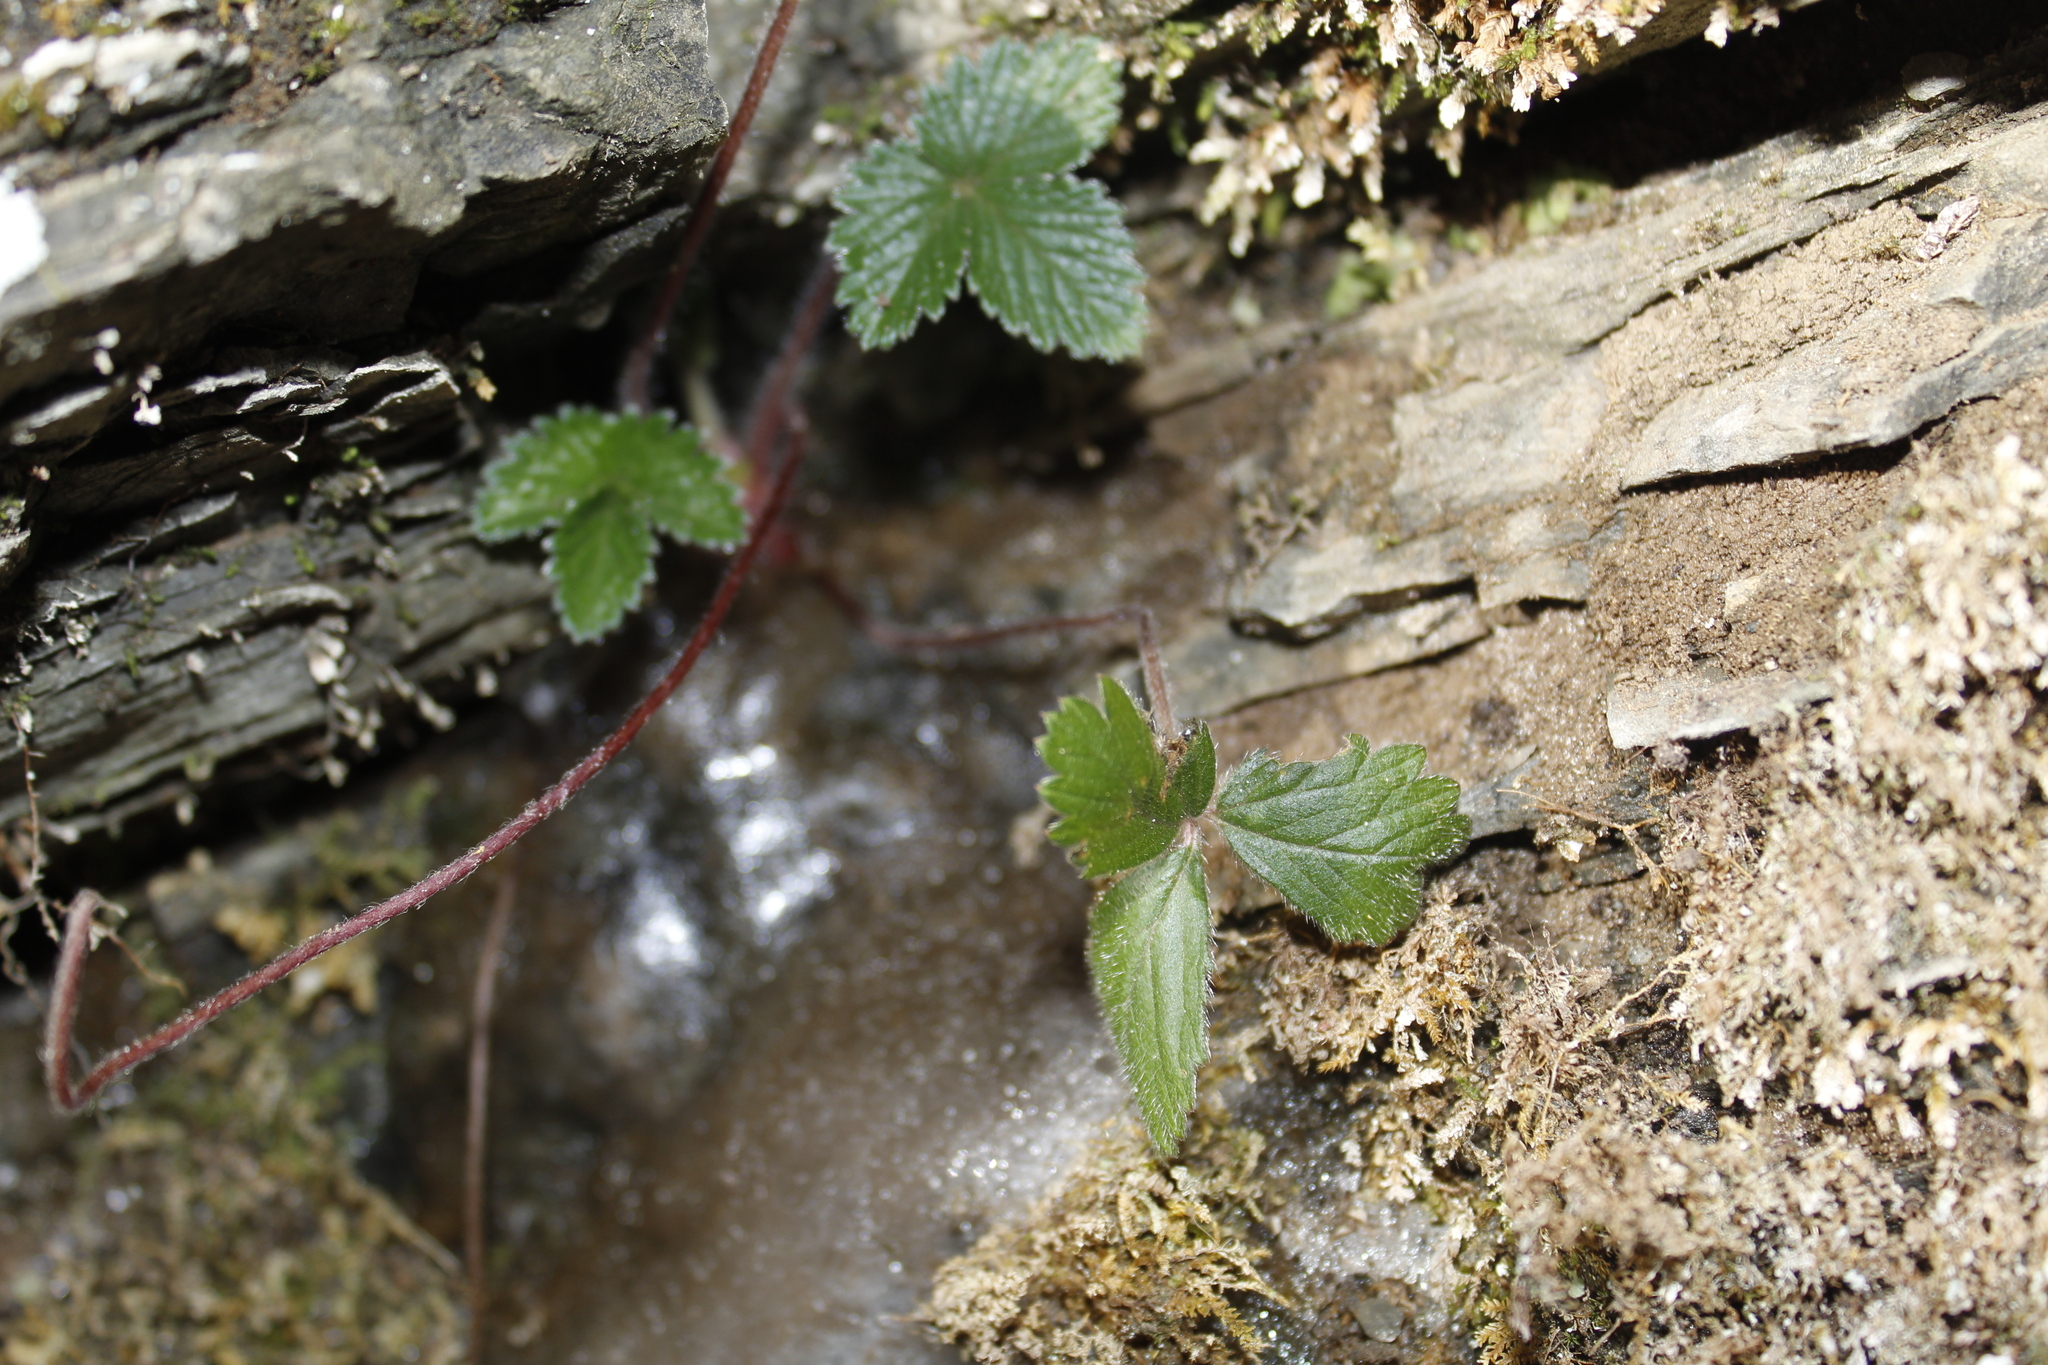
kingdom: Plantae
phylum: Tracheophyta
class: Magnoliopsida
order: Rosales
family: Rosaceae
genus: Potentilla
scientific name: Potentilla indica
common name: Yellow-flowered strawberry
